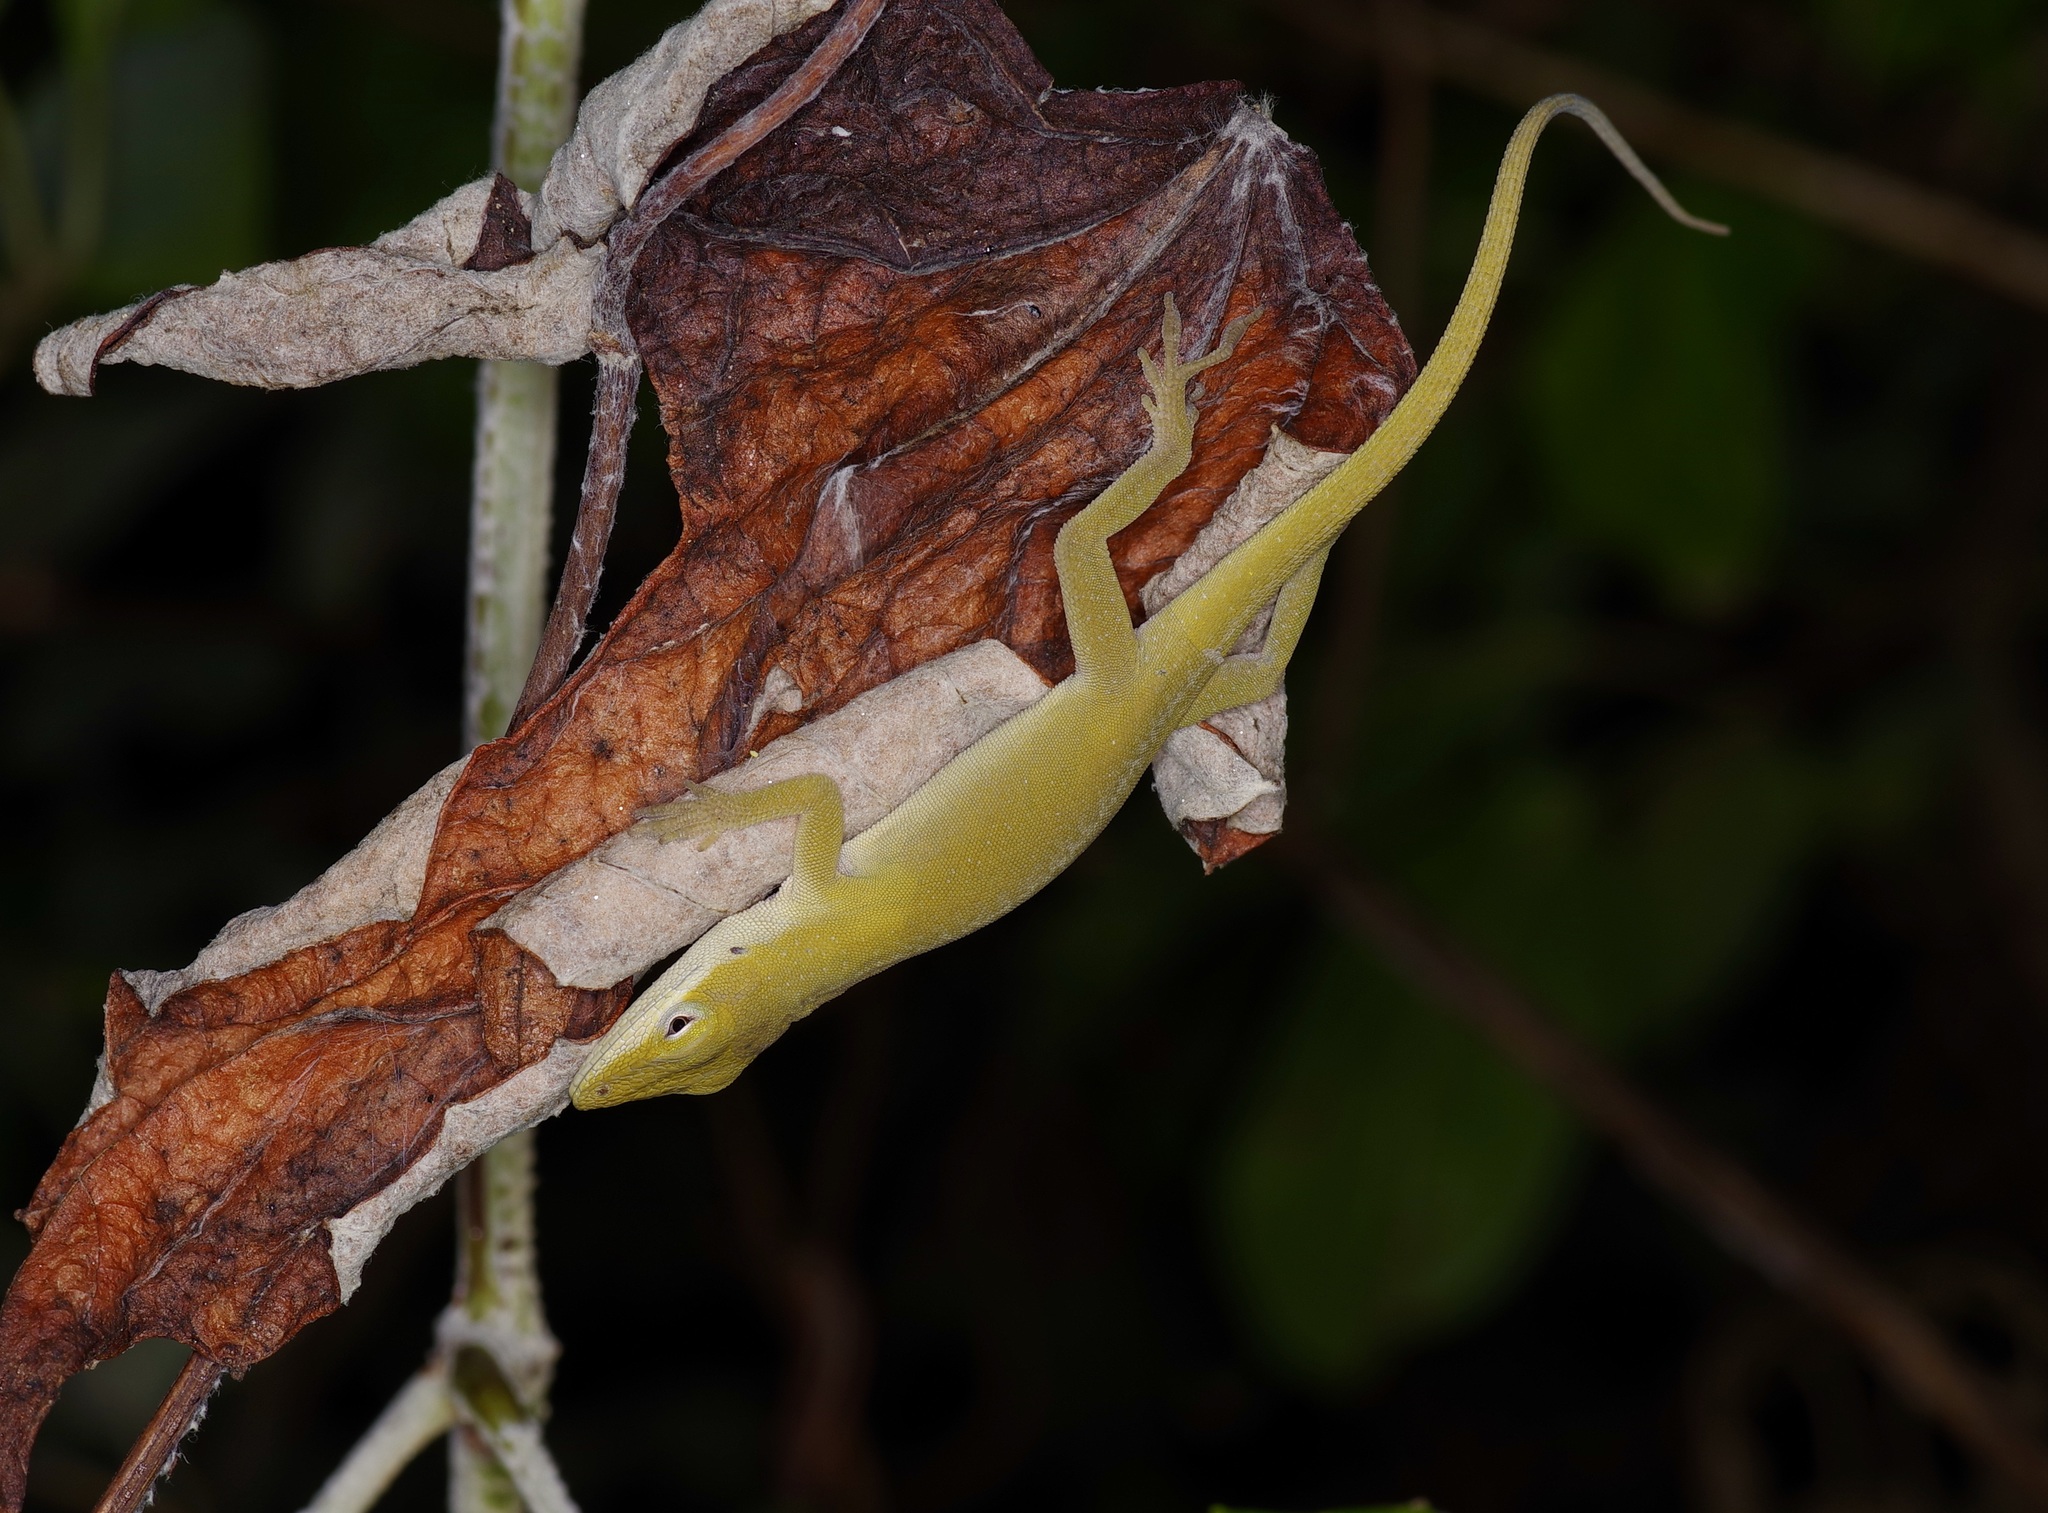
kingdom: Animalia
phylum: Chordata
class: Squamata
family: Dactyloidae
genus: Anolis
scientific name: Anolis carolinensis
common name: Green anole
